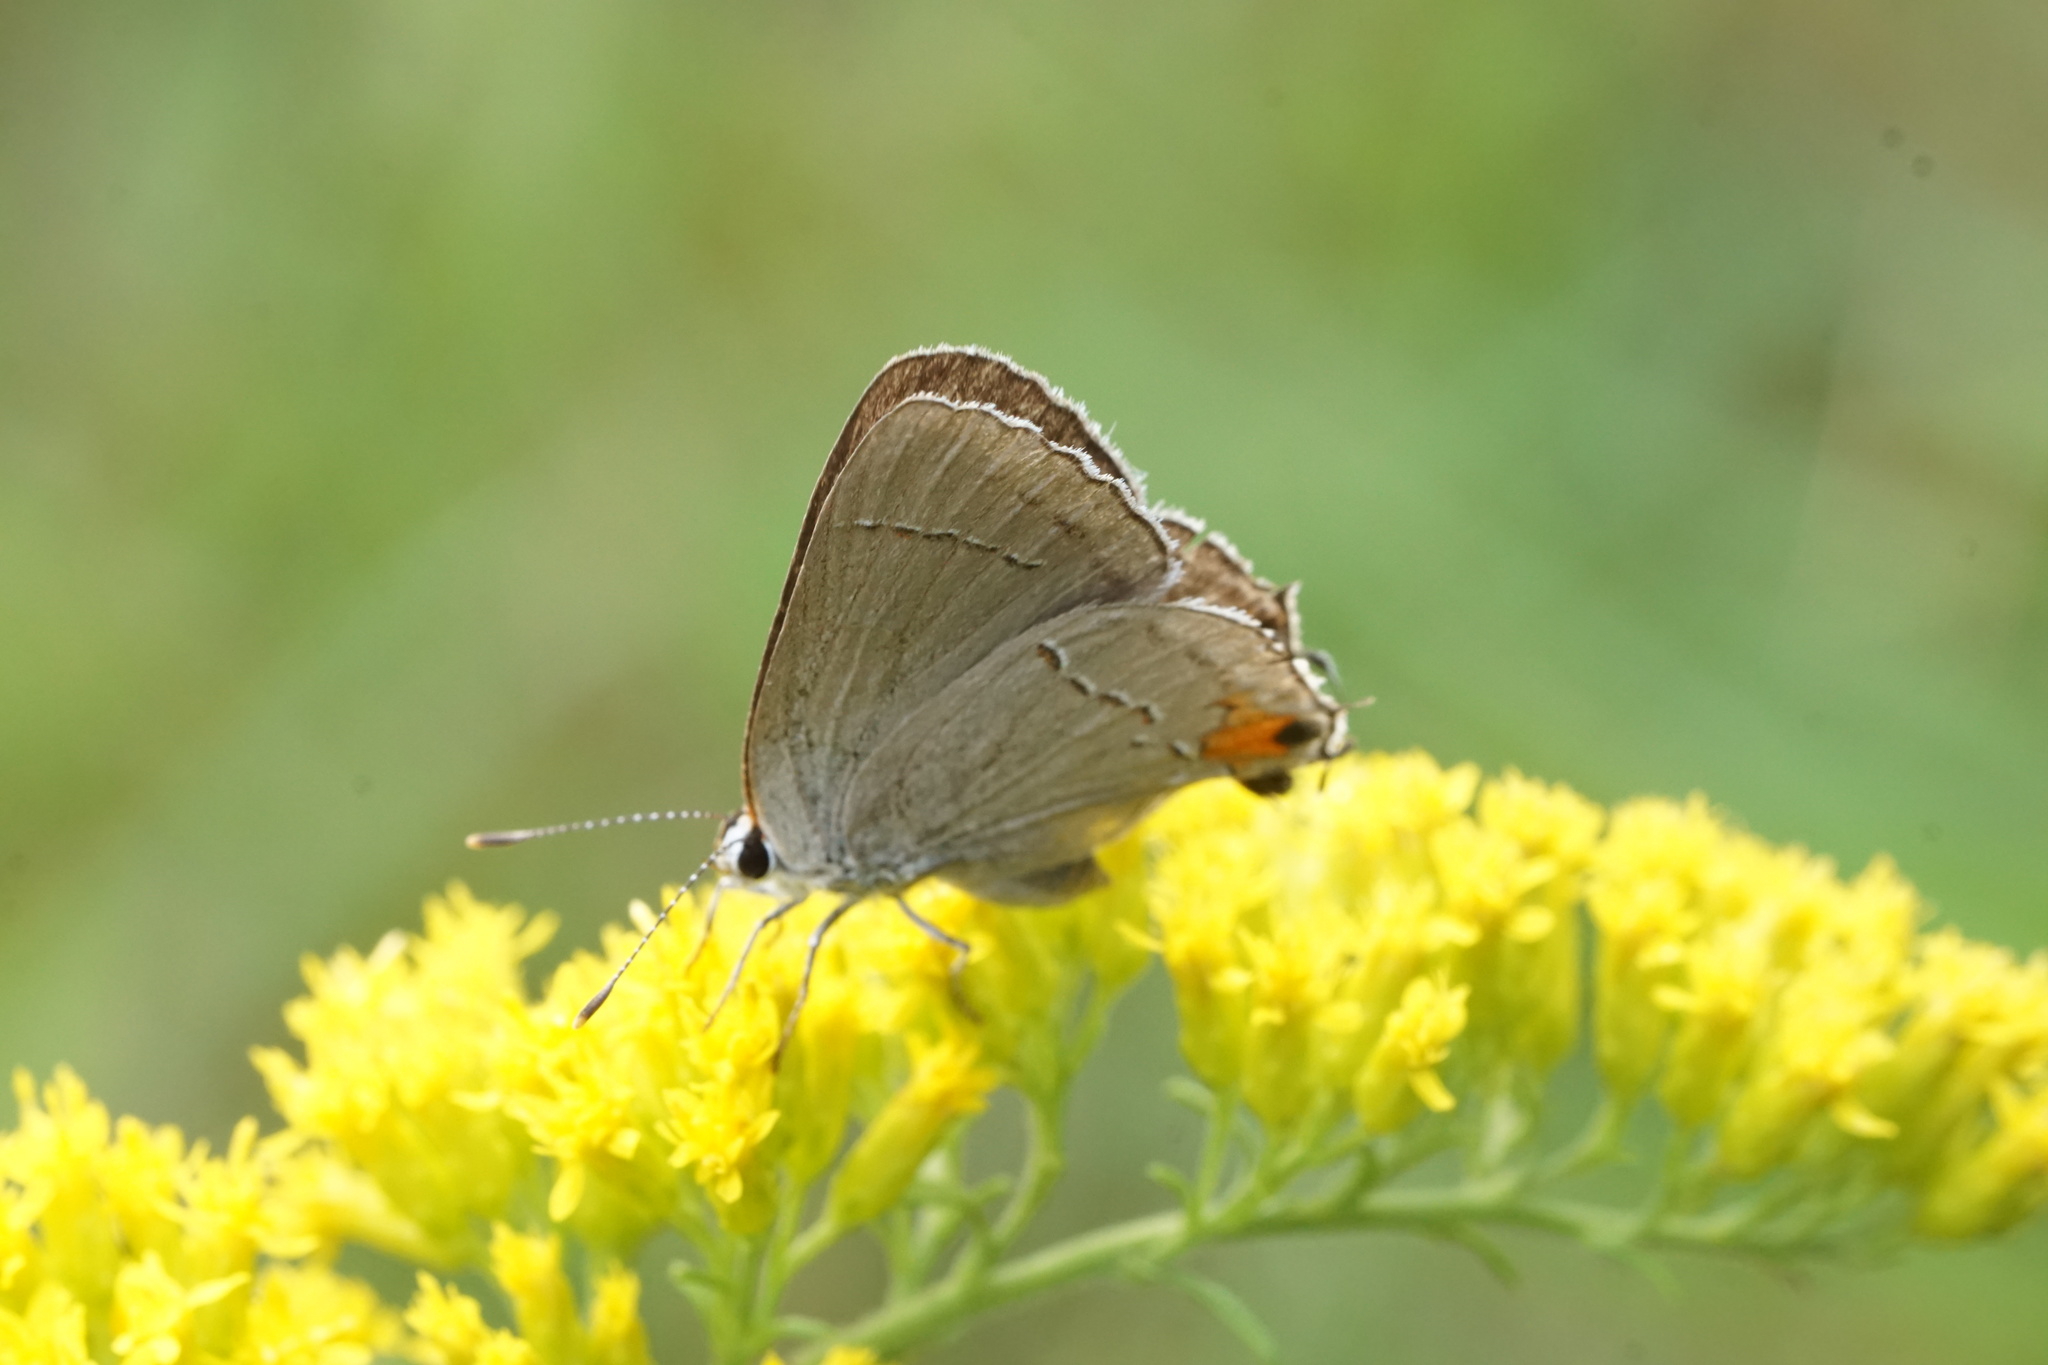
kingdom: Animalia
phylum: Arthropoda
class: Insecta
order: Lepidoptera
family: Lycaenidae
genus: Strymon
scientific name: Strymon melinus
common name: Gray hairstreak
